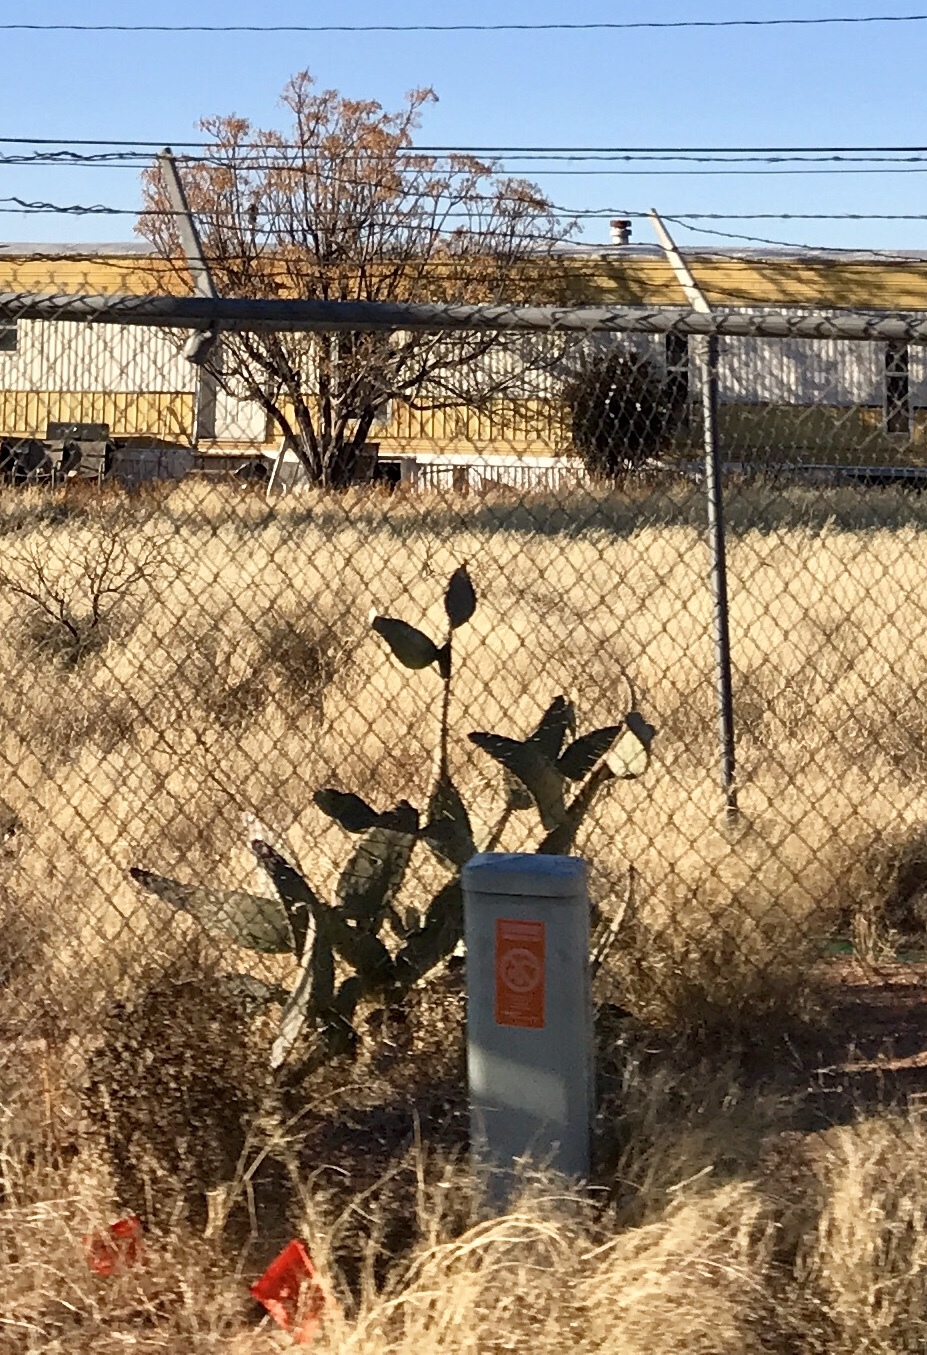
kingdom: Plantae
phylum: Tracheophyta
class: Magnoliopsida
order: Caryophyllales
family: Cactaceae
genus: Opuntia
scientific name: Opuntia engelmannii
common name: Cactus-apple
